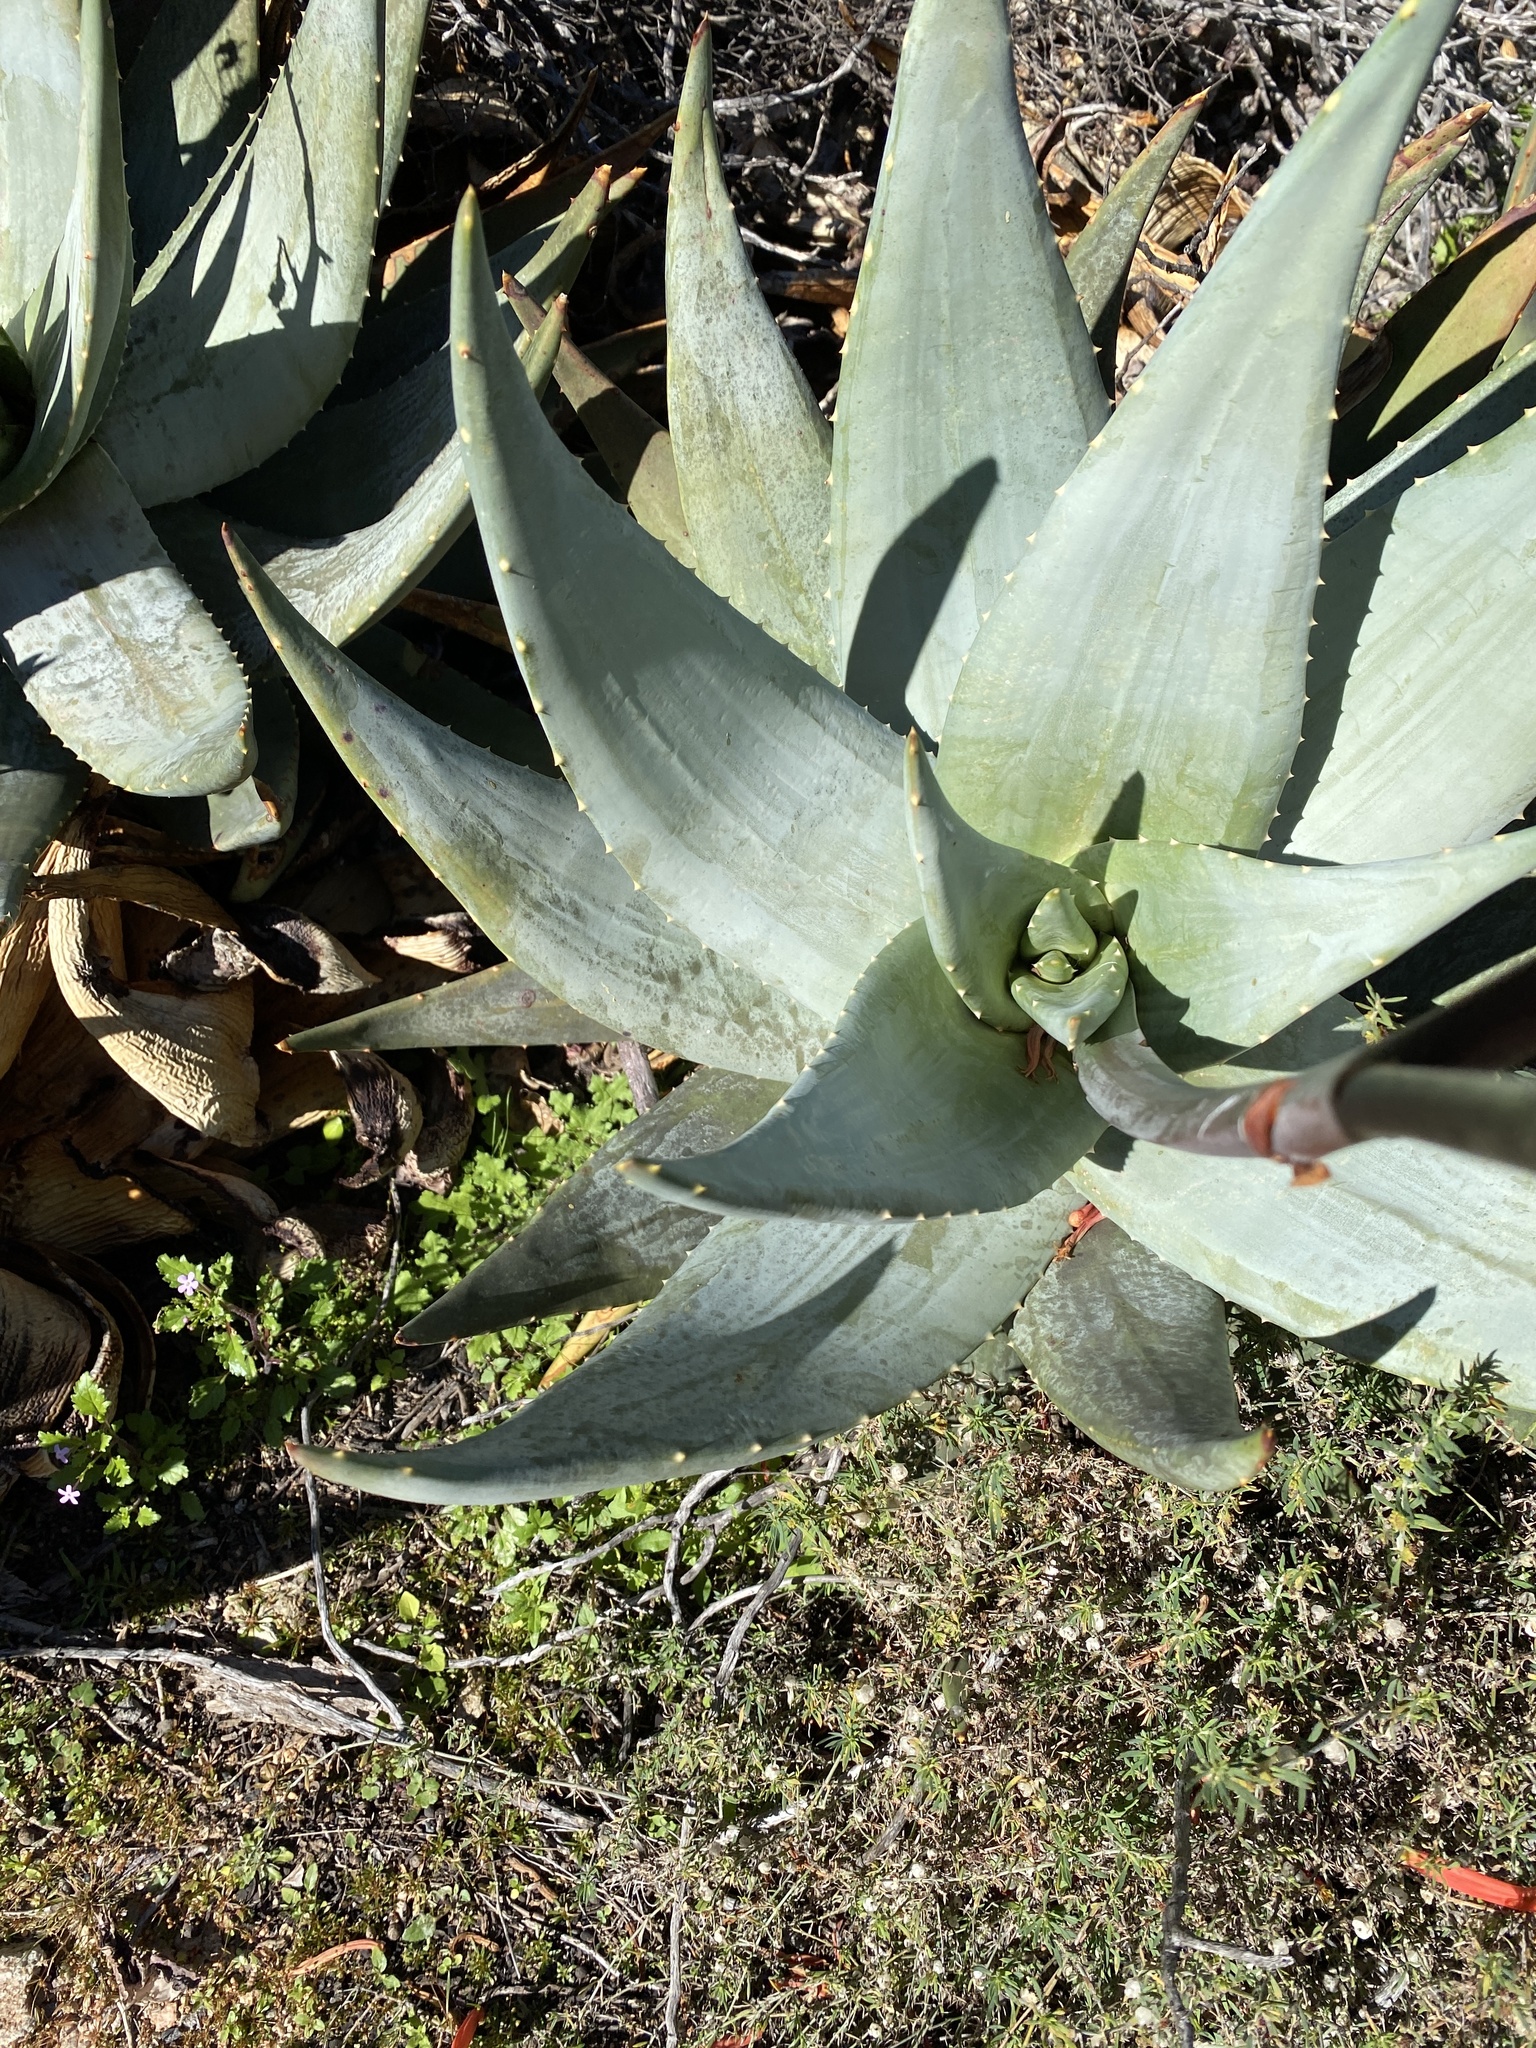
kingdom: Plantae
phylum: Tracheophyta
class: Liliopsida
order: Asparagales
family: Asphodelaceae
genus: Aloe
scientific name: Aloe comptonii
